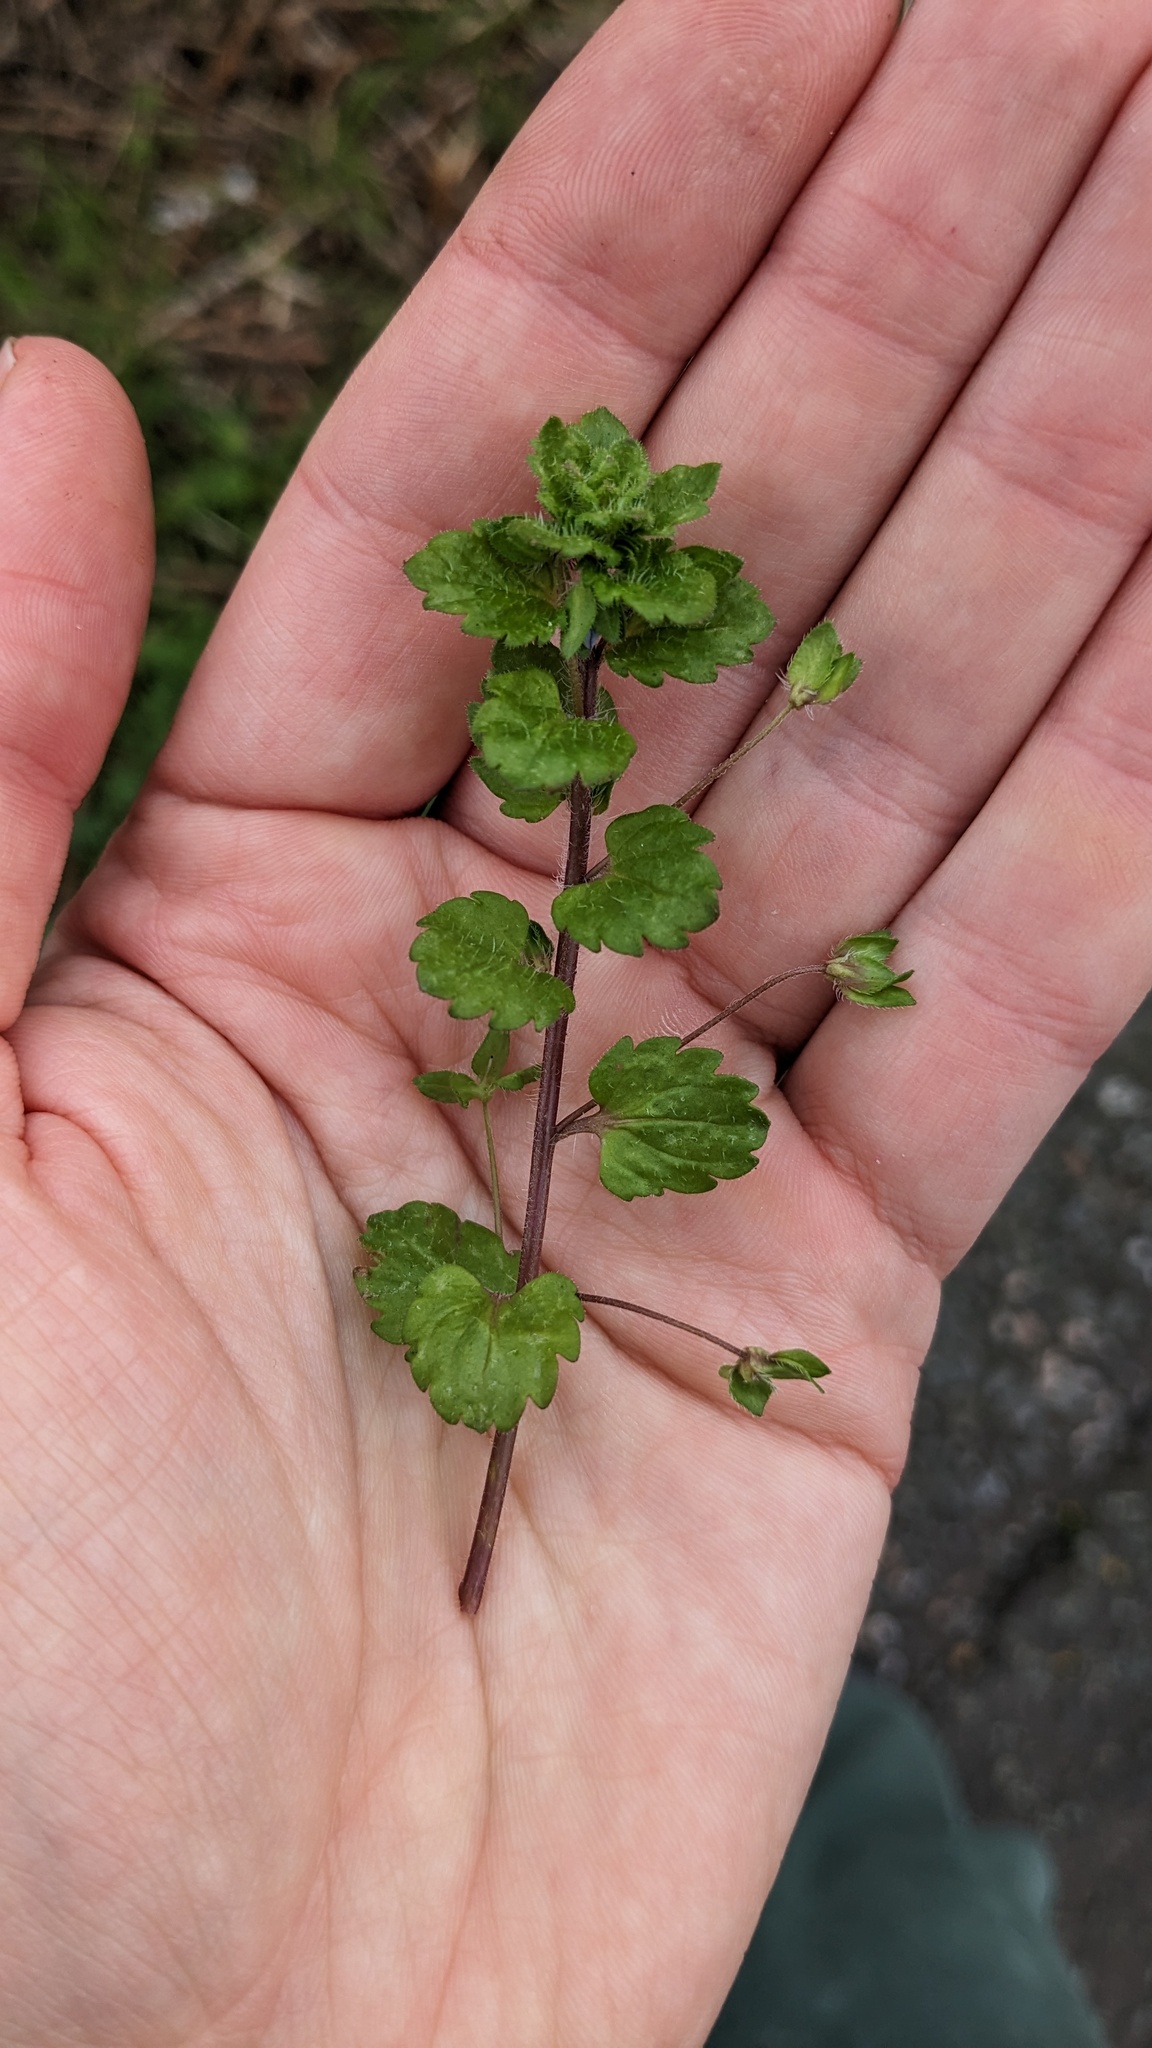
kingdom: Plantae
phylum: Tracheophyta
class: Magnoliopsida
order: Lamiales
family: Plantaginaceae
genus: Veronica
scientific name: Veronica persica
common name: Common field-speedwell
